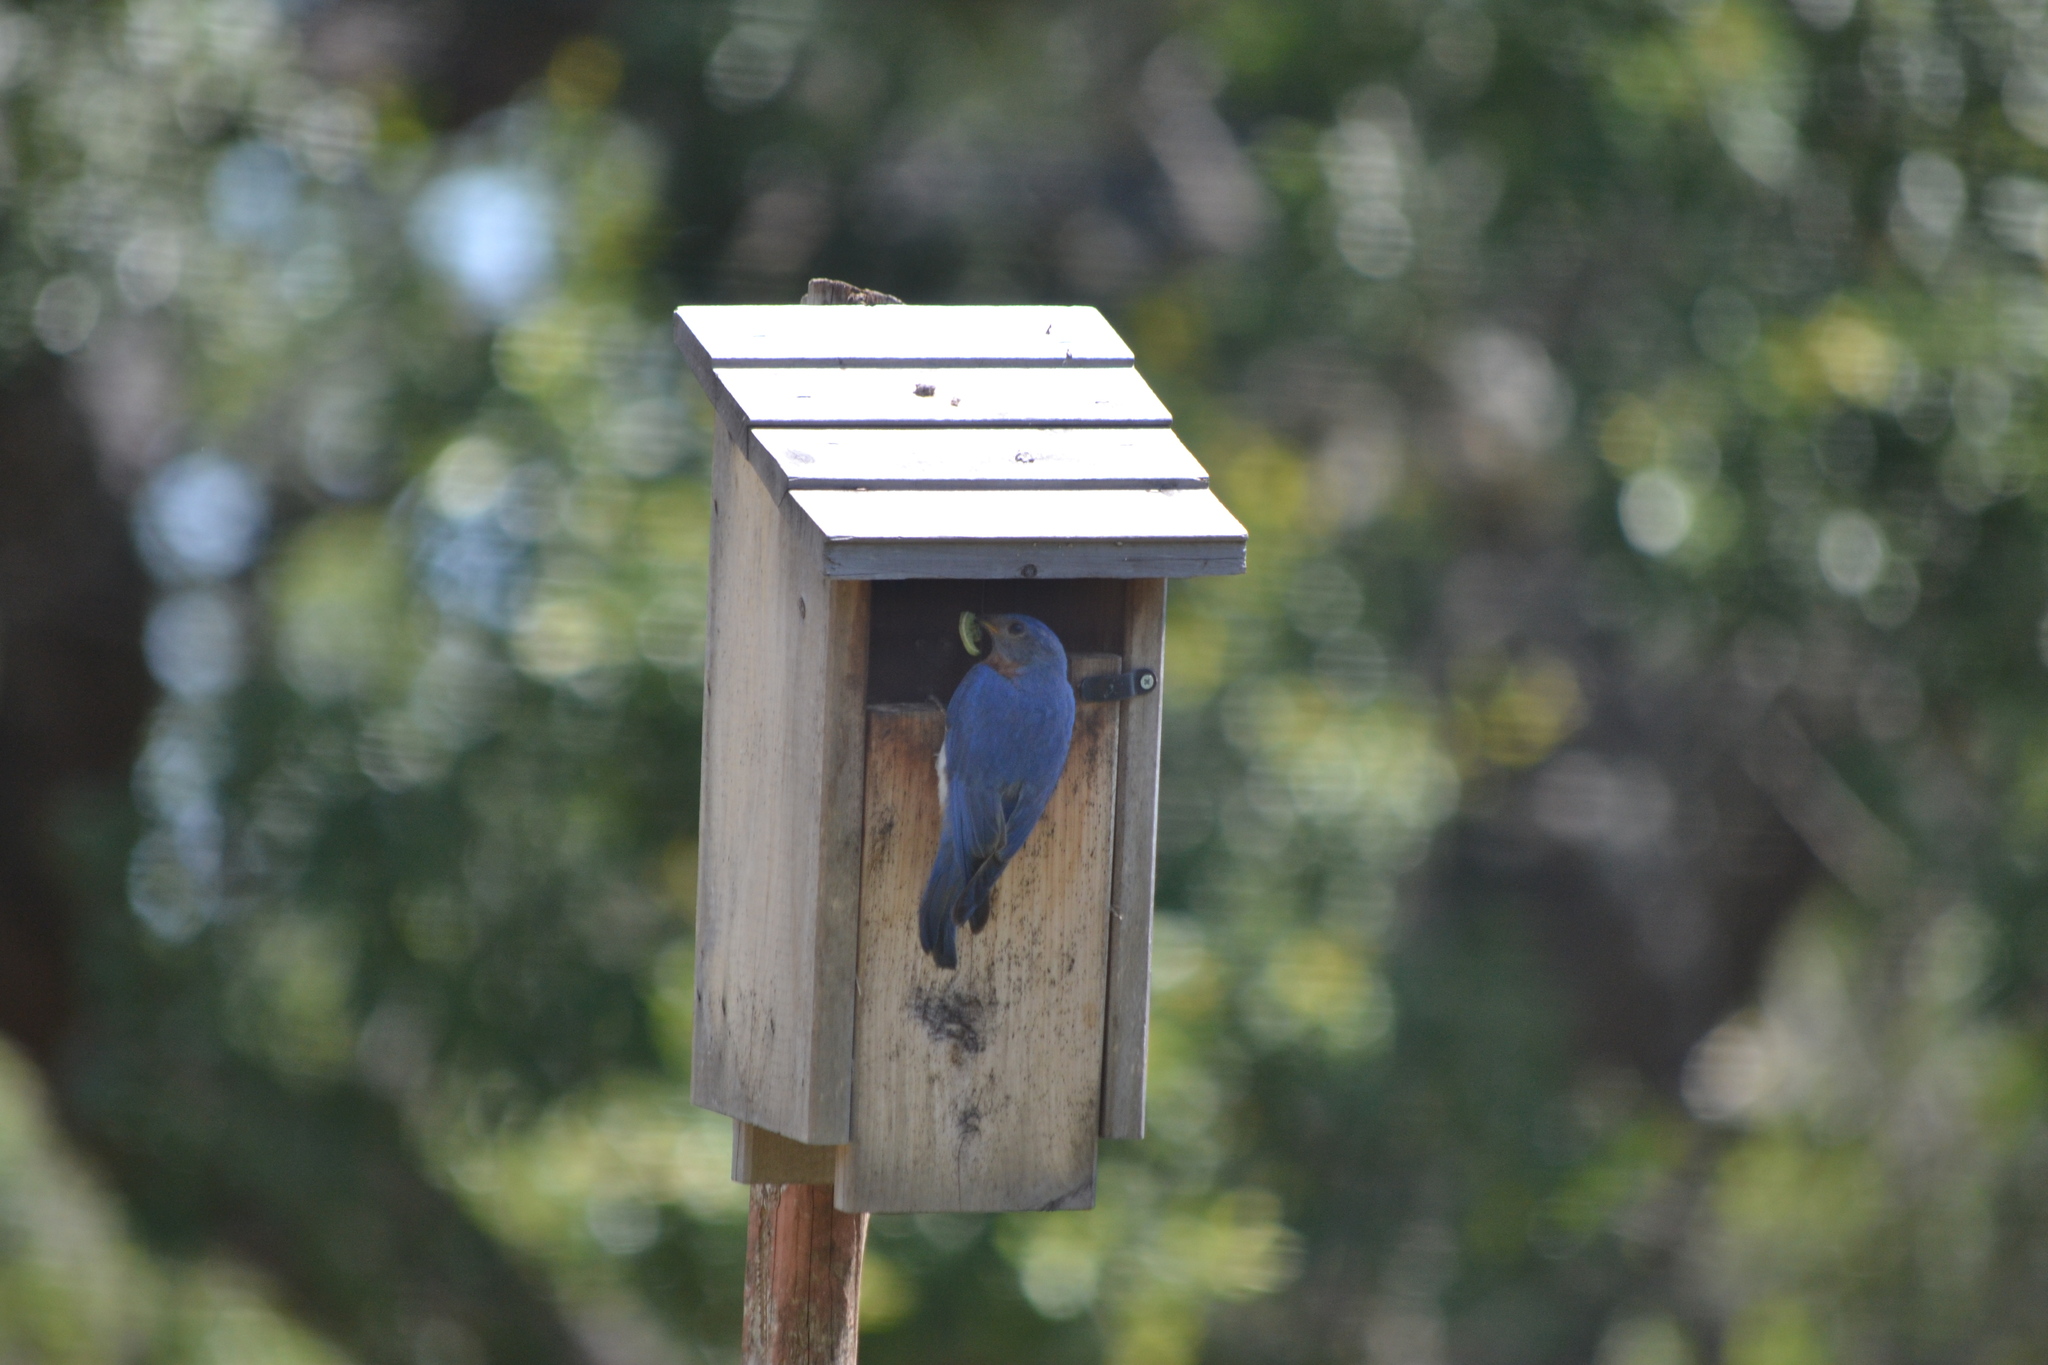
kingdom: Animalia
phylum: Chordata
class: Aves
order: Passeriformes
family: Turdidae
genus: Sialia
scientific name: Sialia sialis
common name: Eastern bluebird
